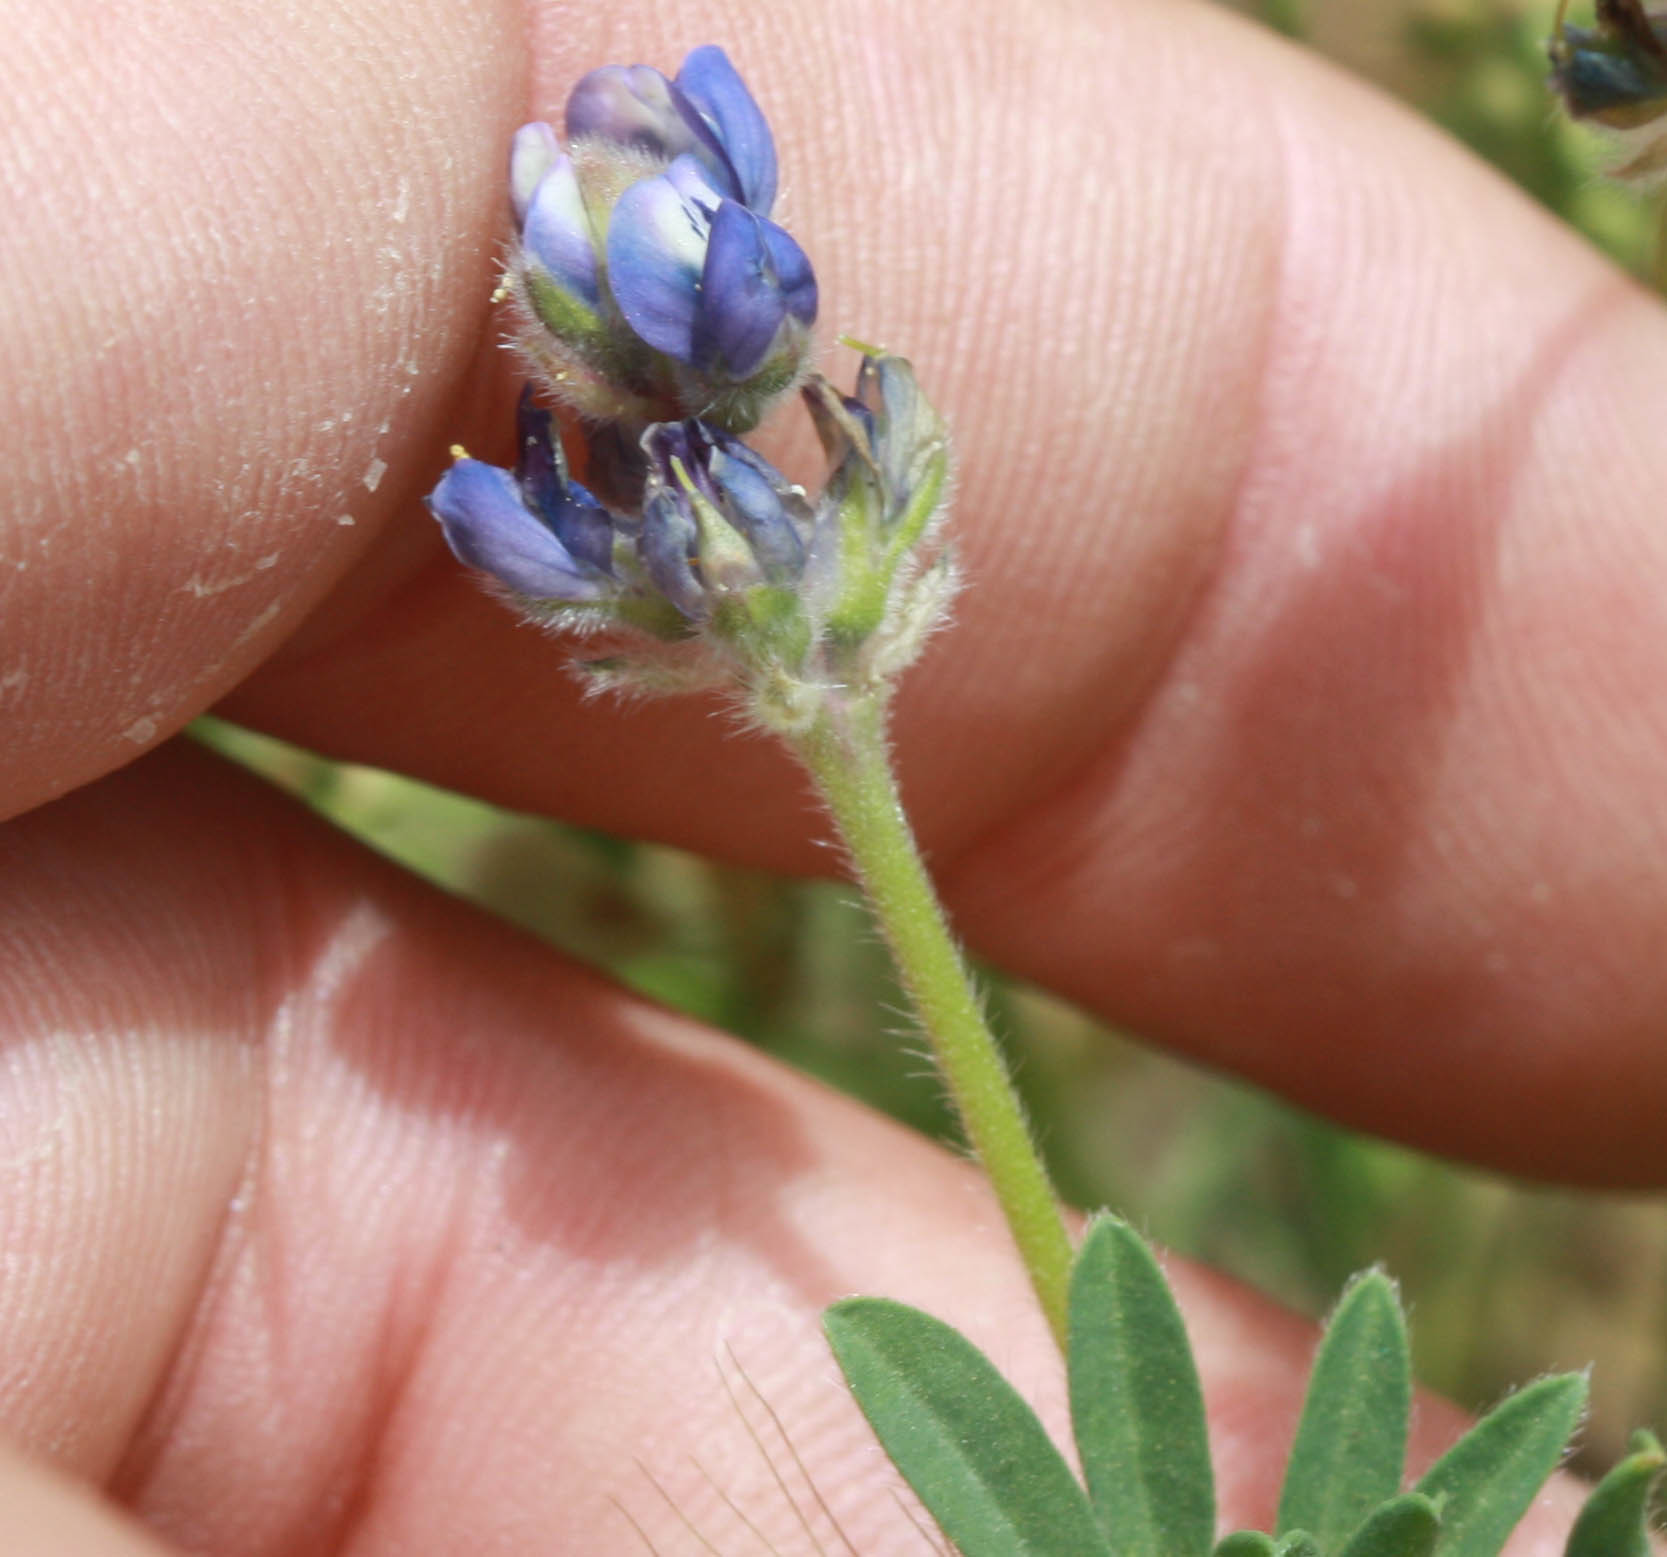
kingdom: Plantae
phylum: Tracheophyta
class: Magnoliopsida
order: Fabales
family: Fabaceae
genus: Lupinus
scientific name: Lupinus bicolor
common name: Miniature lupine
